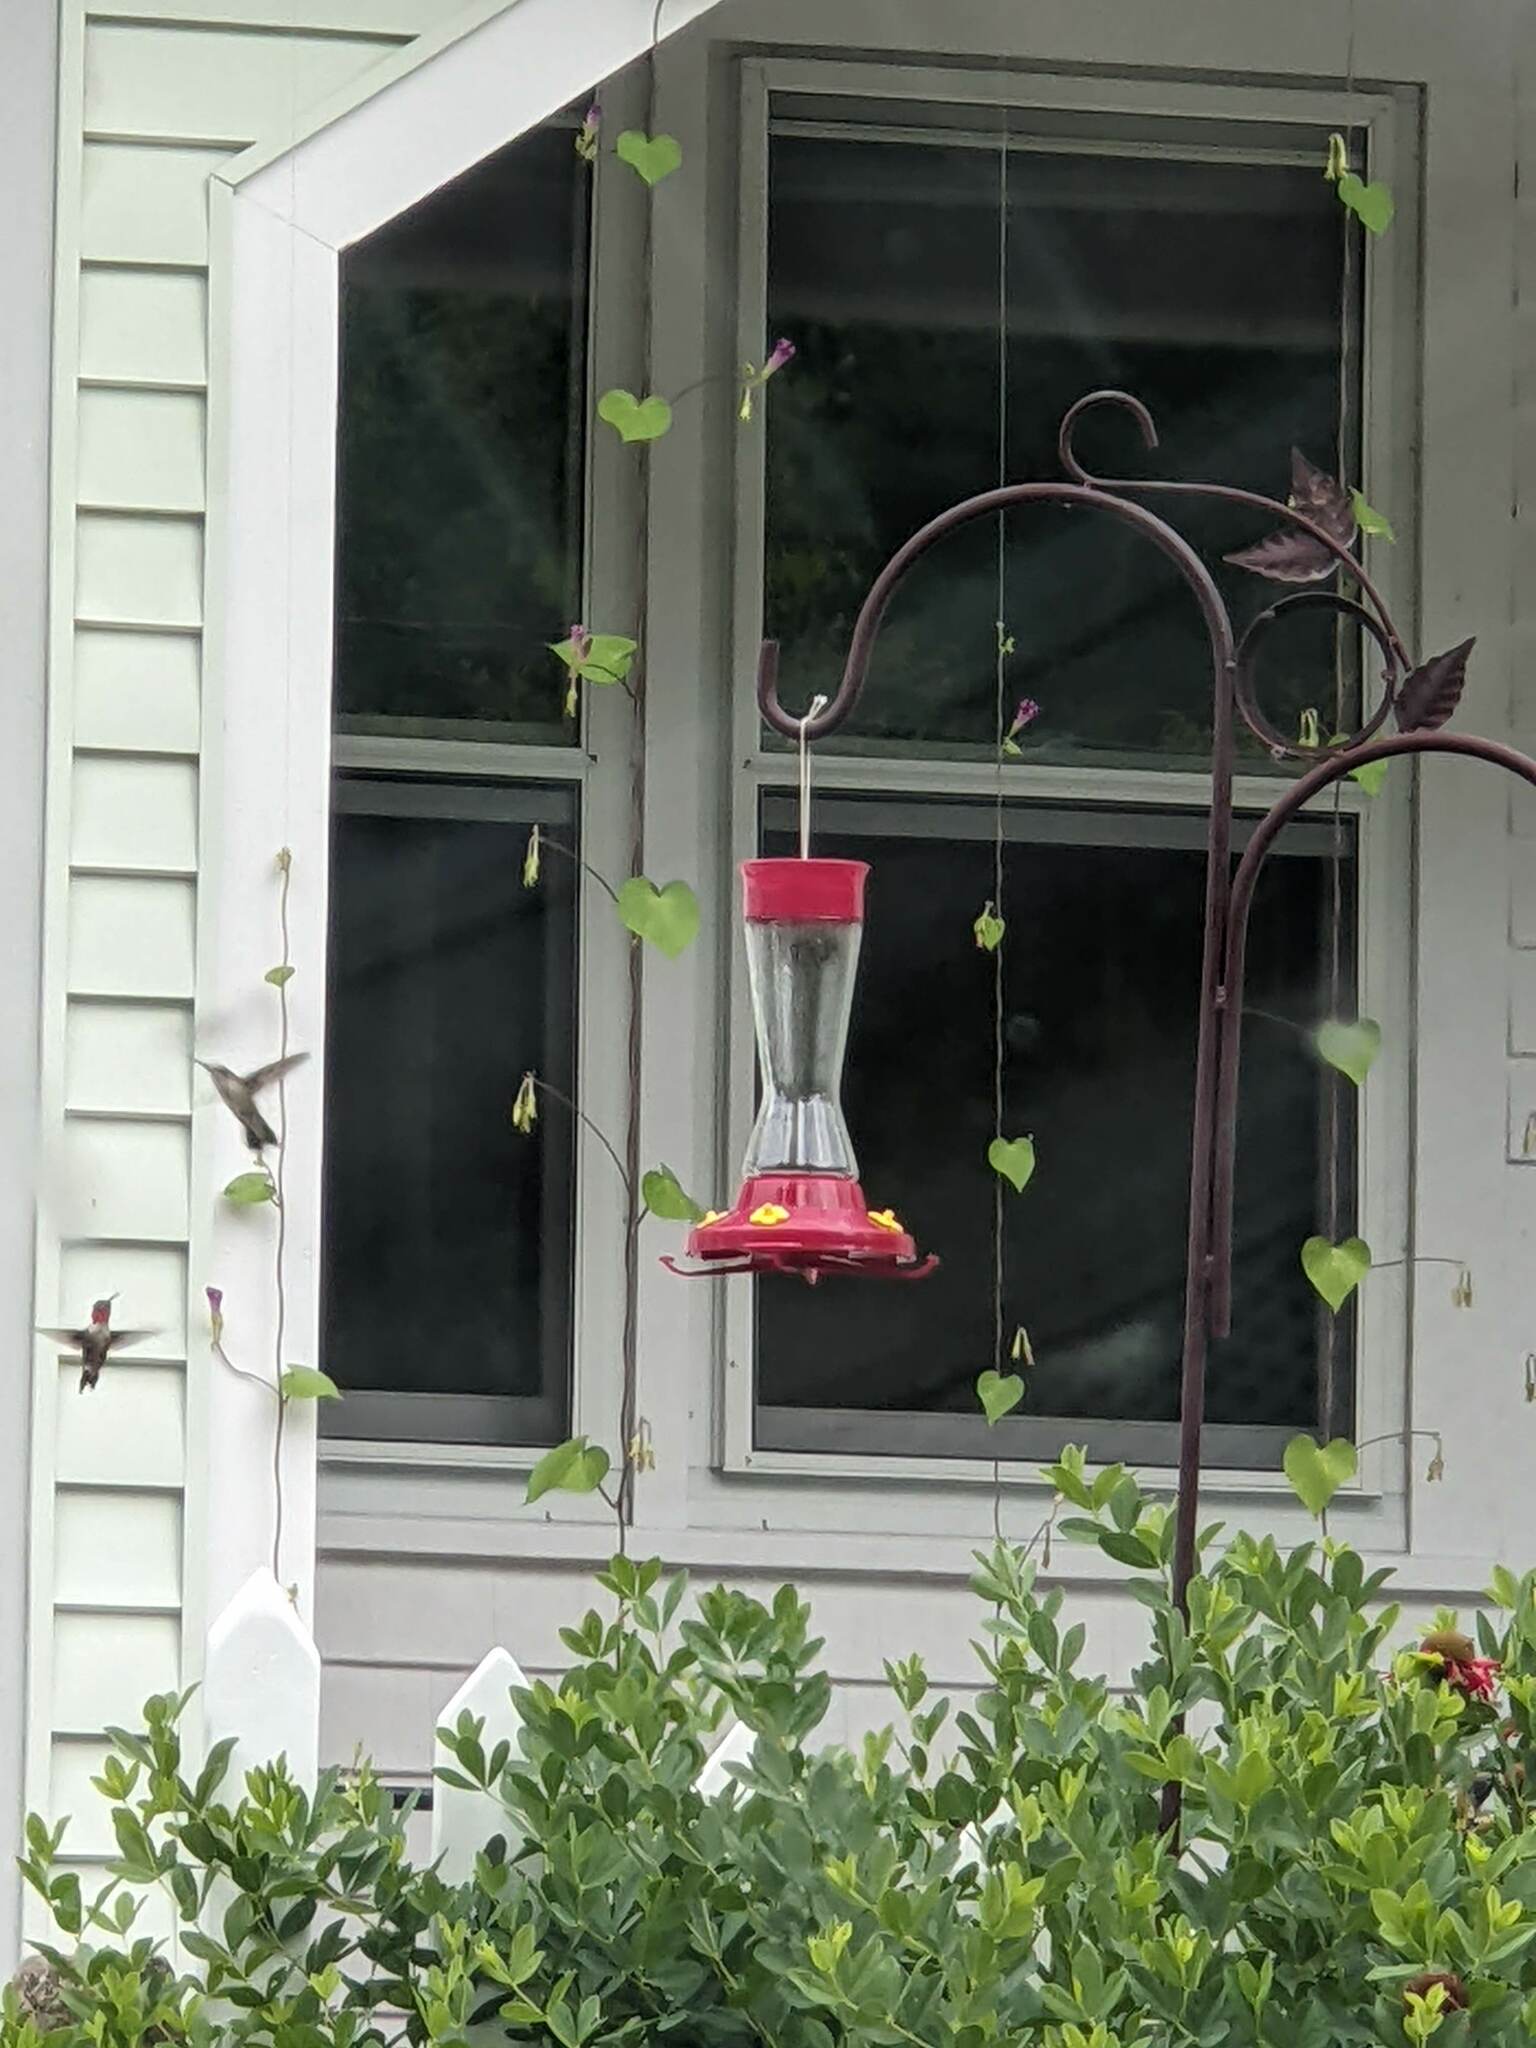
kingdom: Animalia
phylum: Chordata
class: Aves
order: Apodiformes
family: Trochilidae
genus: Archilochus
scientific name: Archilochus colubris
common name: Ruby-throated hummingbird
